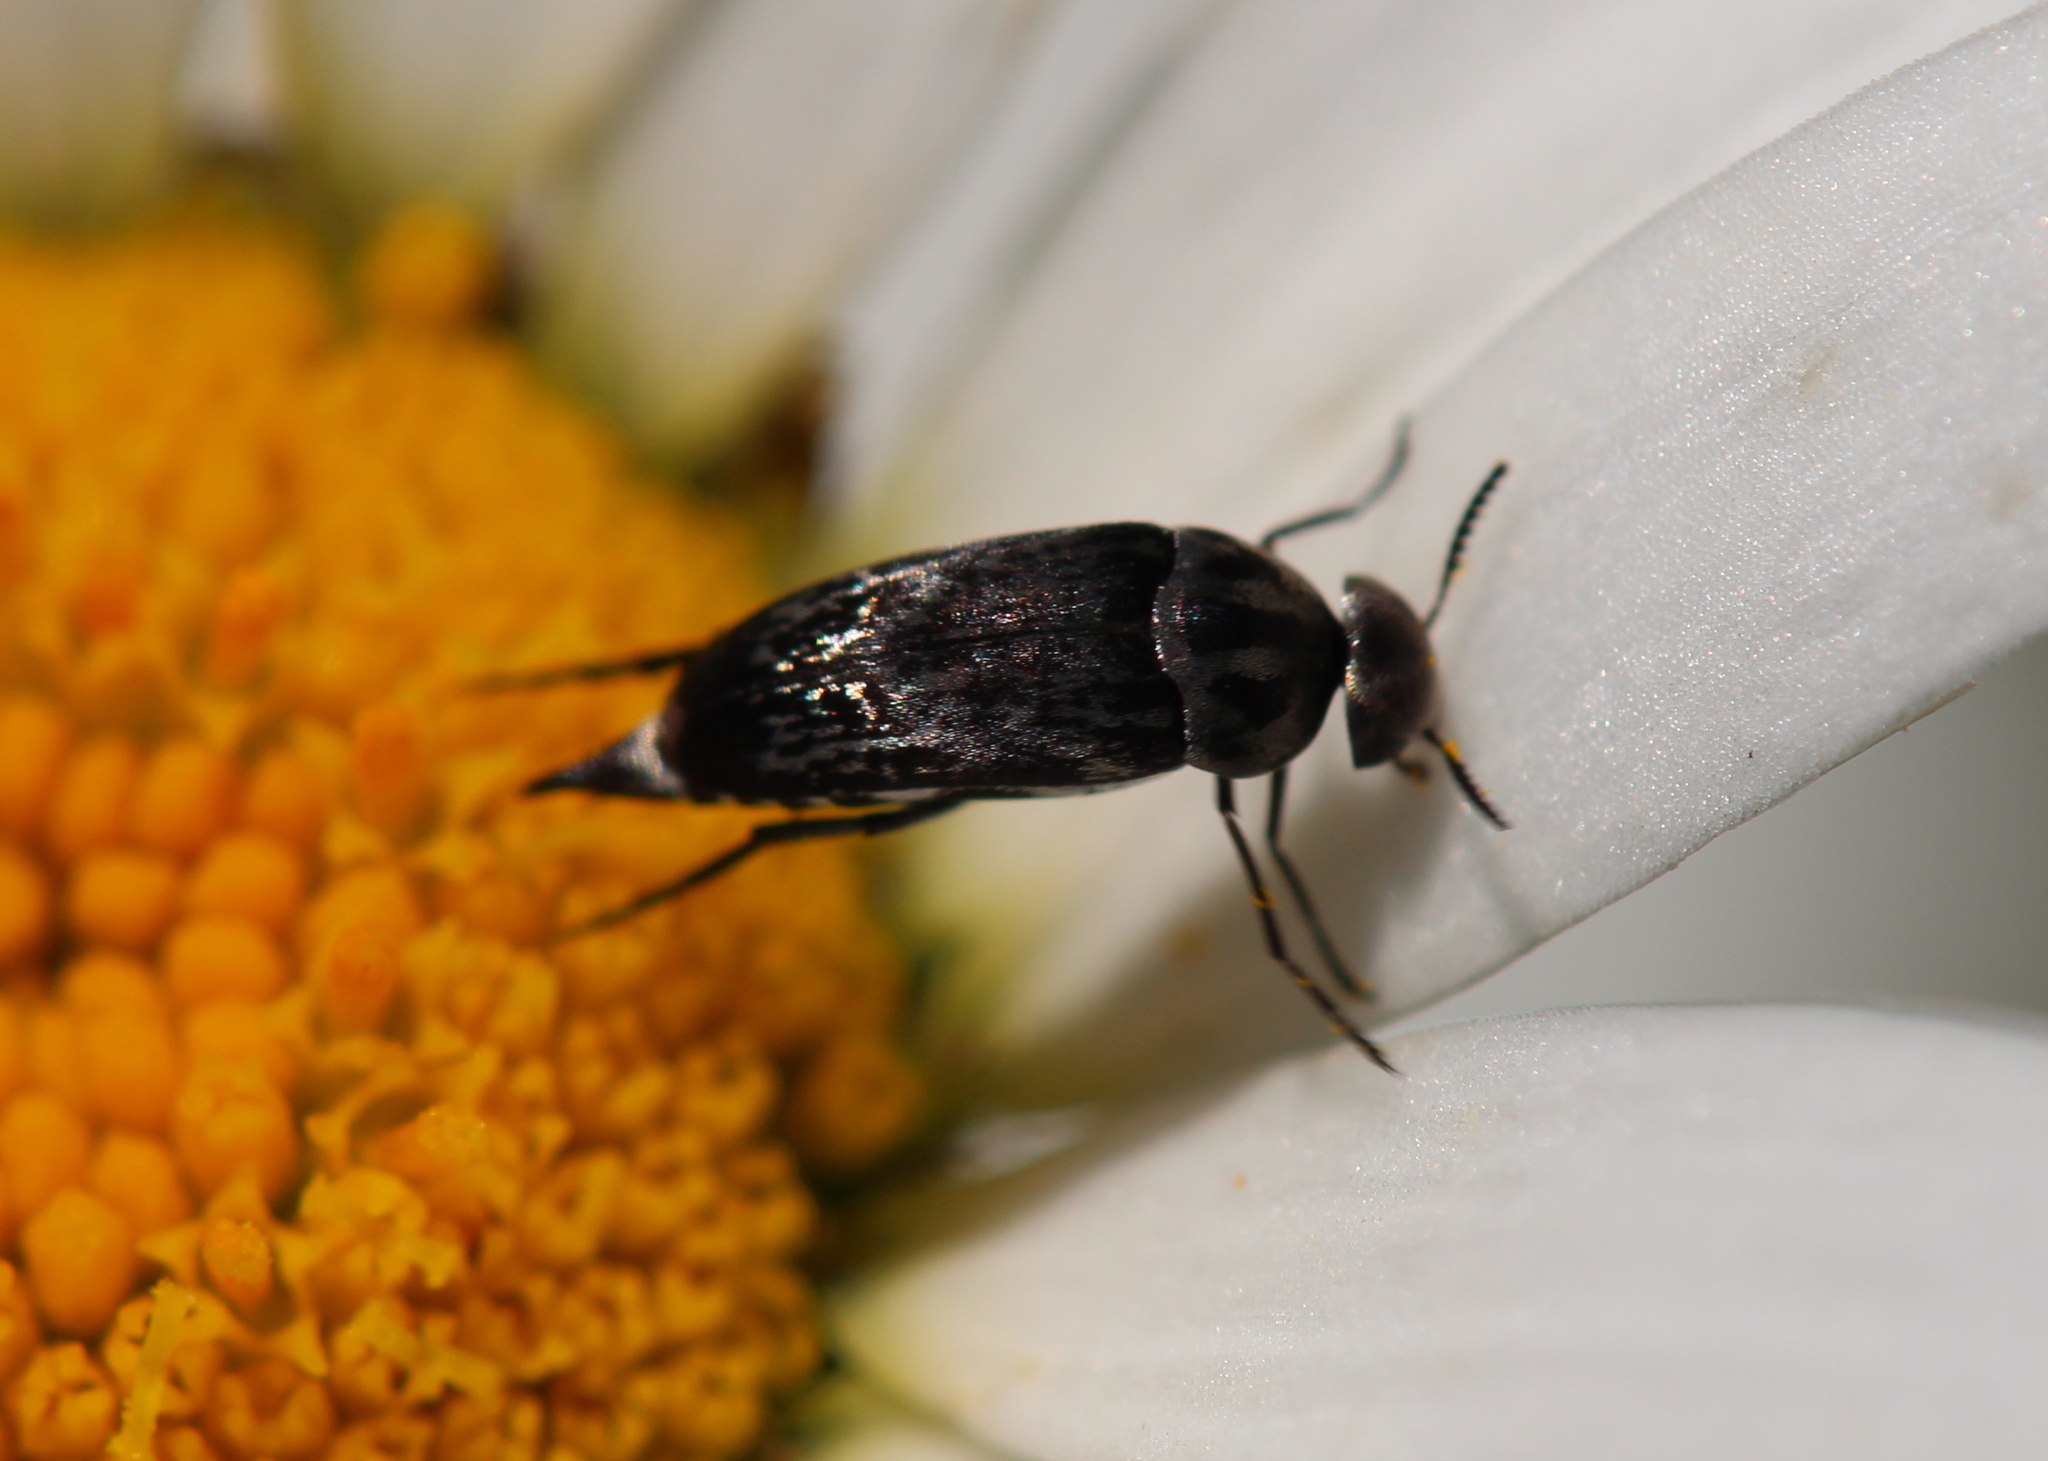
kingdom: Animalia
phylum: Arthropoda
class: Insecta
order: Coleoptera
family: Mordellidae
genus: Mordella
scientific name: Mordella marginata
